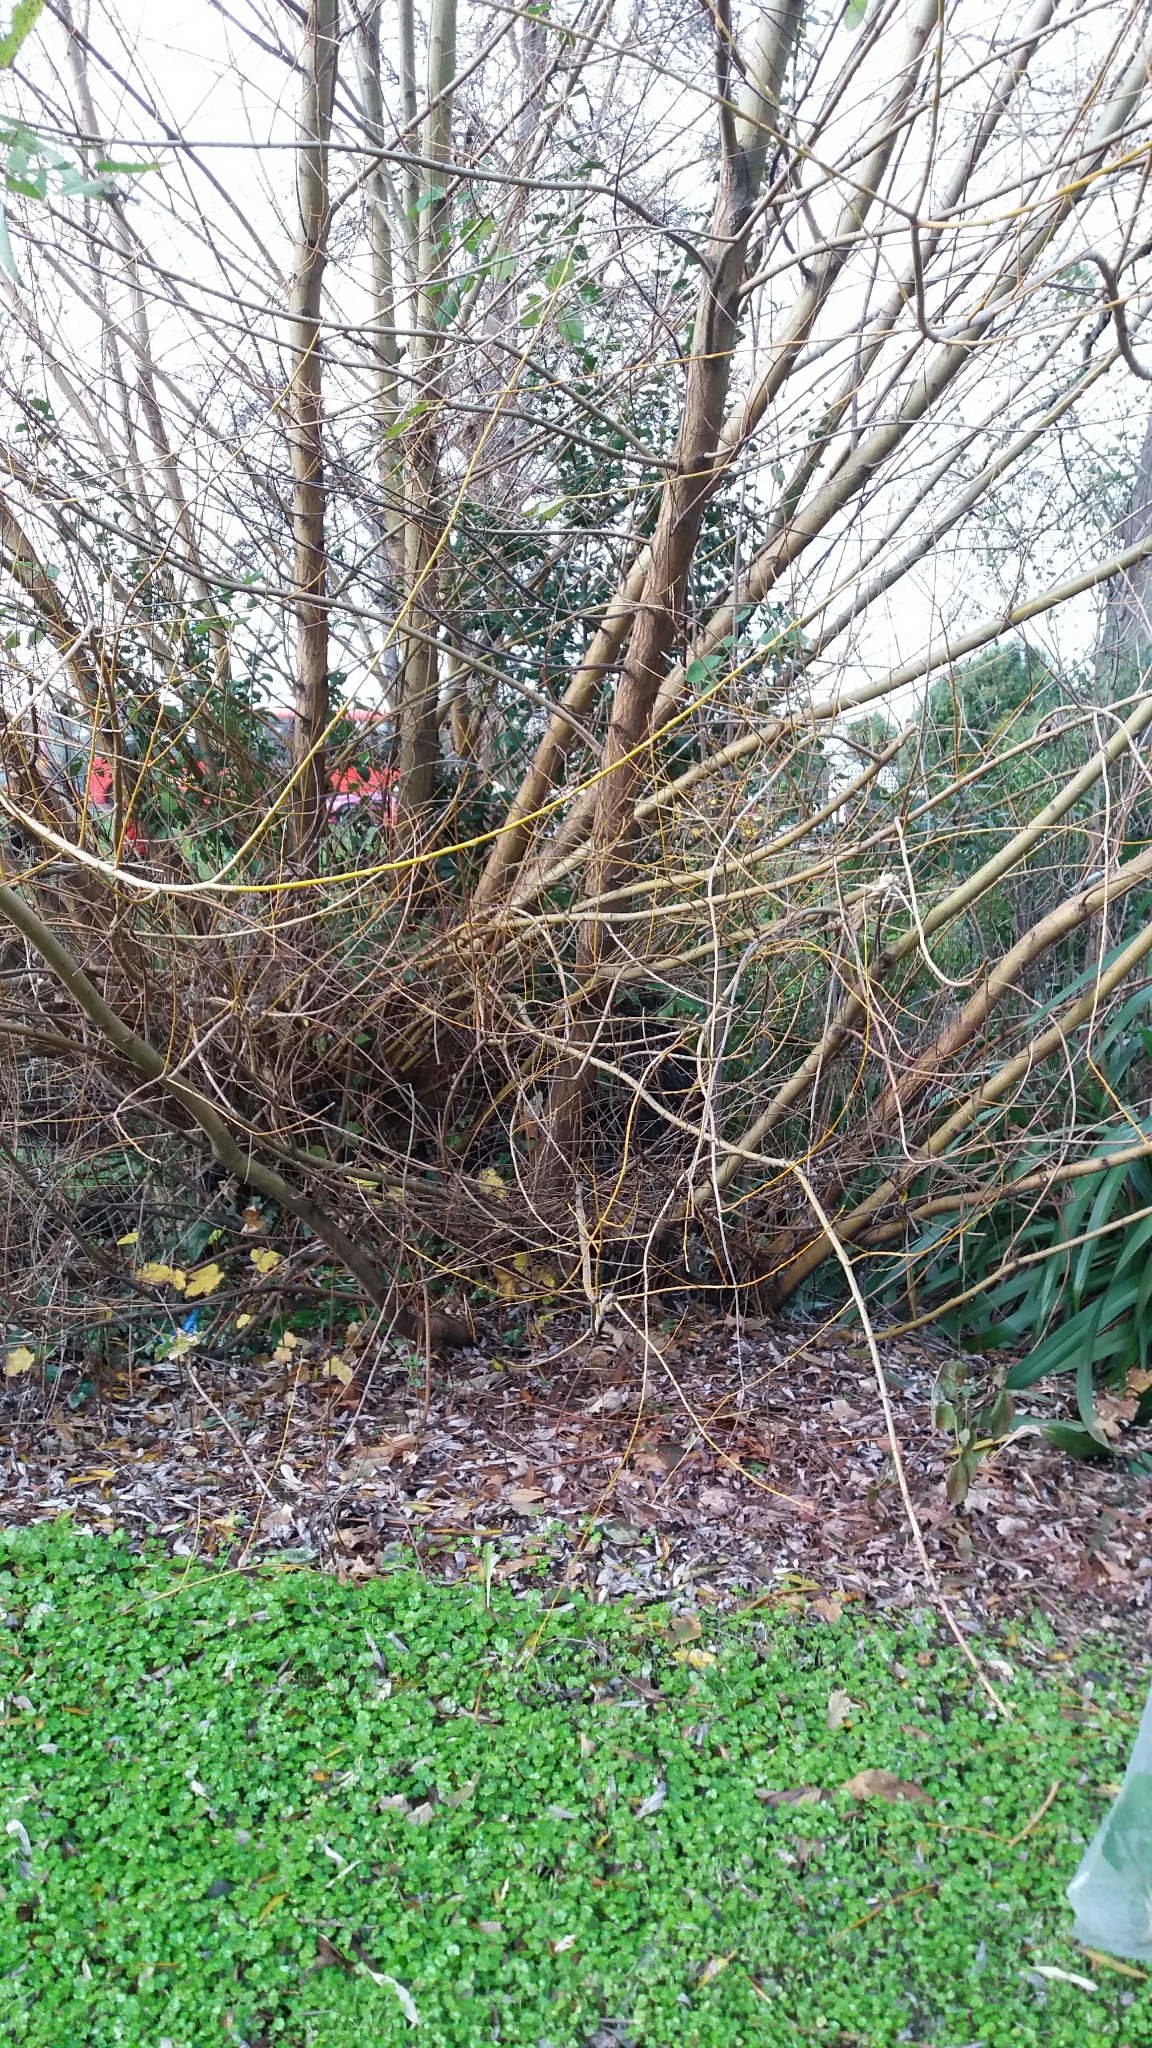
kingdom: Plantae
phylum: Tracheophyta
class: Magnoliopsida
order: Malpighiales
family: Salicaceae
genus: Salix
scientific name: Salix fragilis
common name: Crack willow
